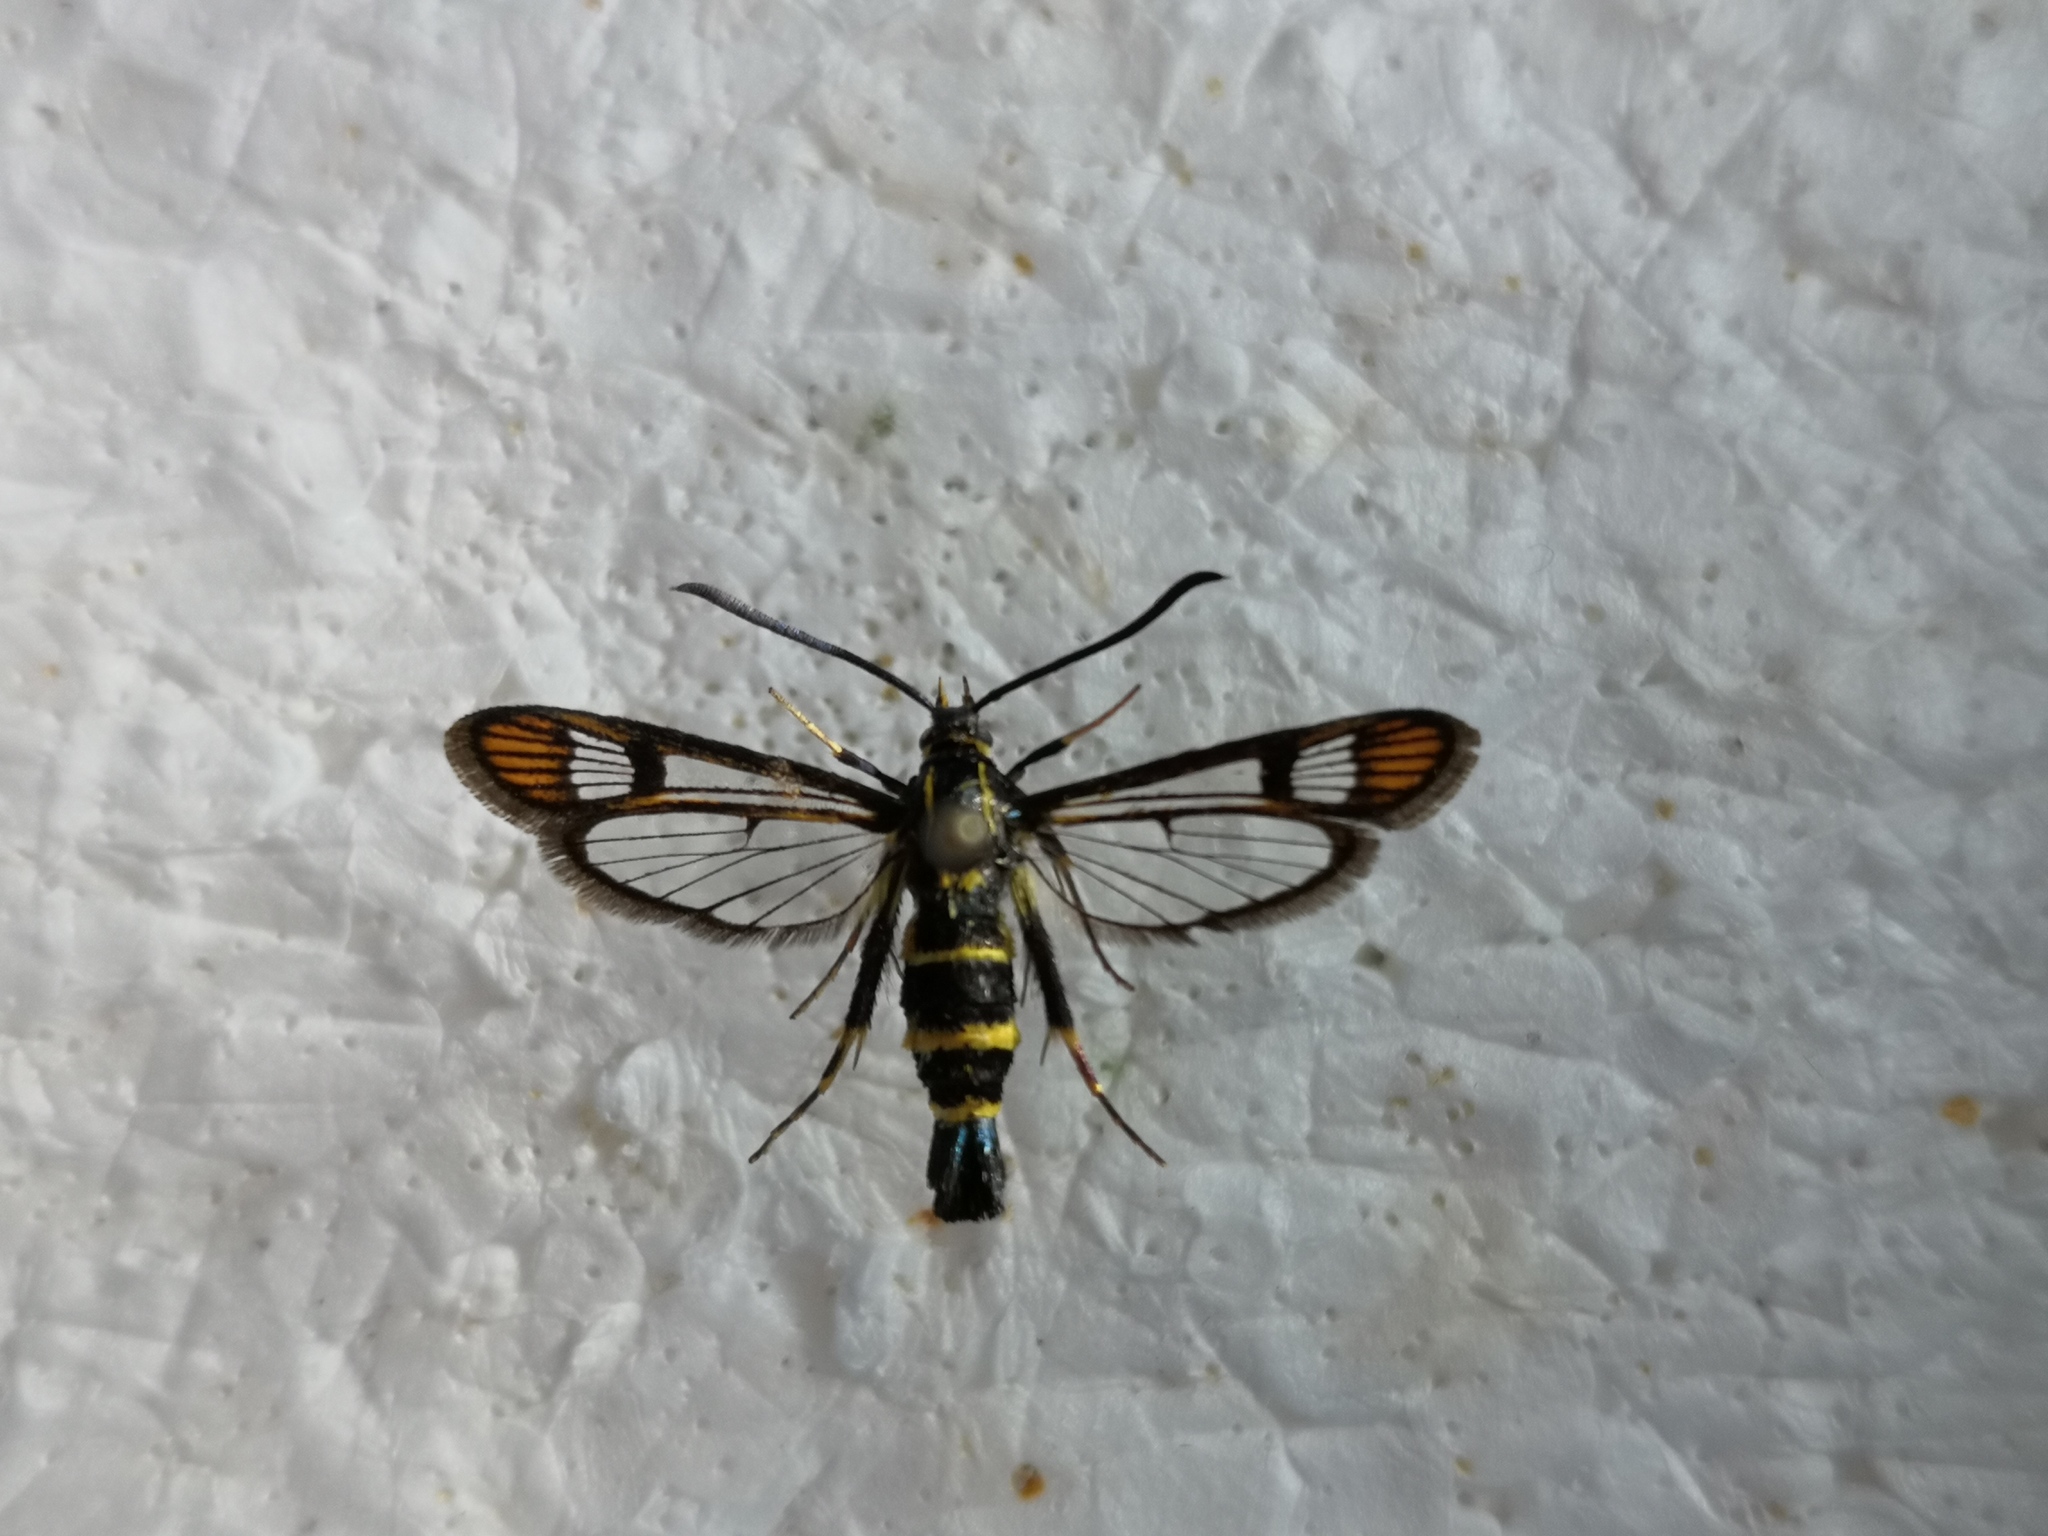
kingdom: Animalia
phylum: Arthropoda
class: Insecta
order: Lepidoptera
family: Sesiidae
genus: Synanthedon
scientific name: Synanthedon conopiformis
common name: Dale's oak clearwing
